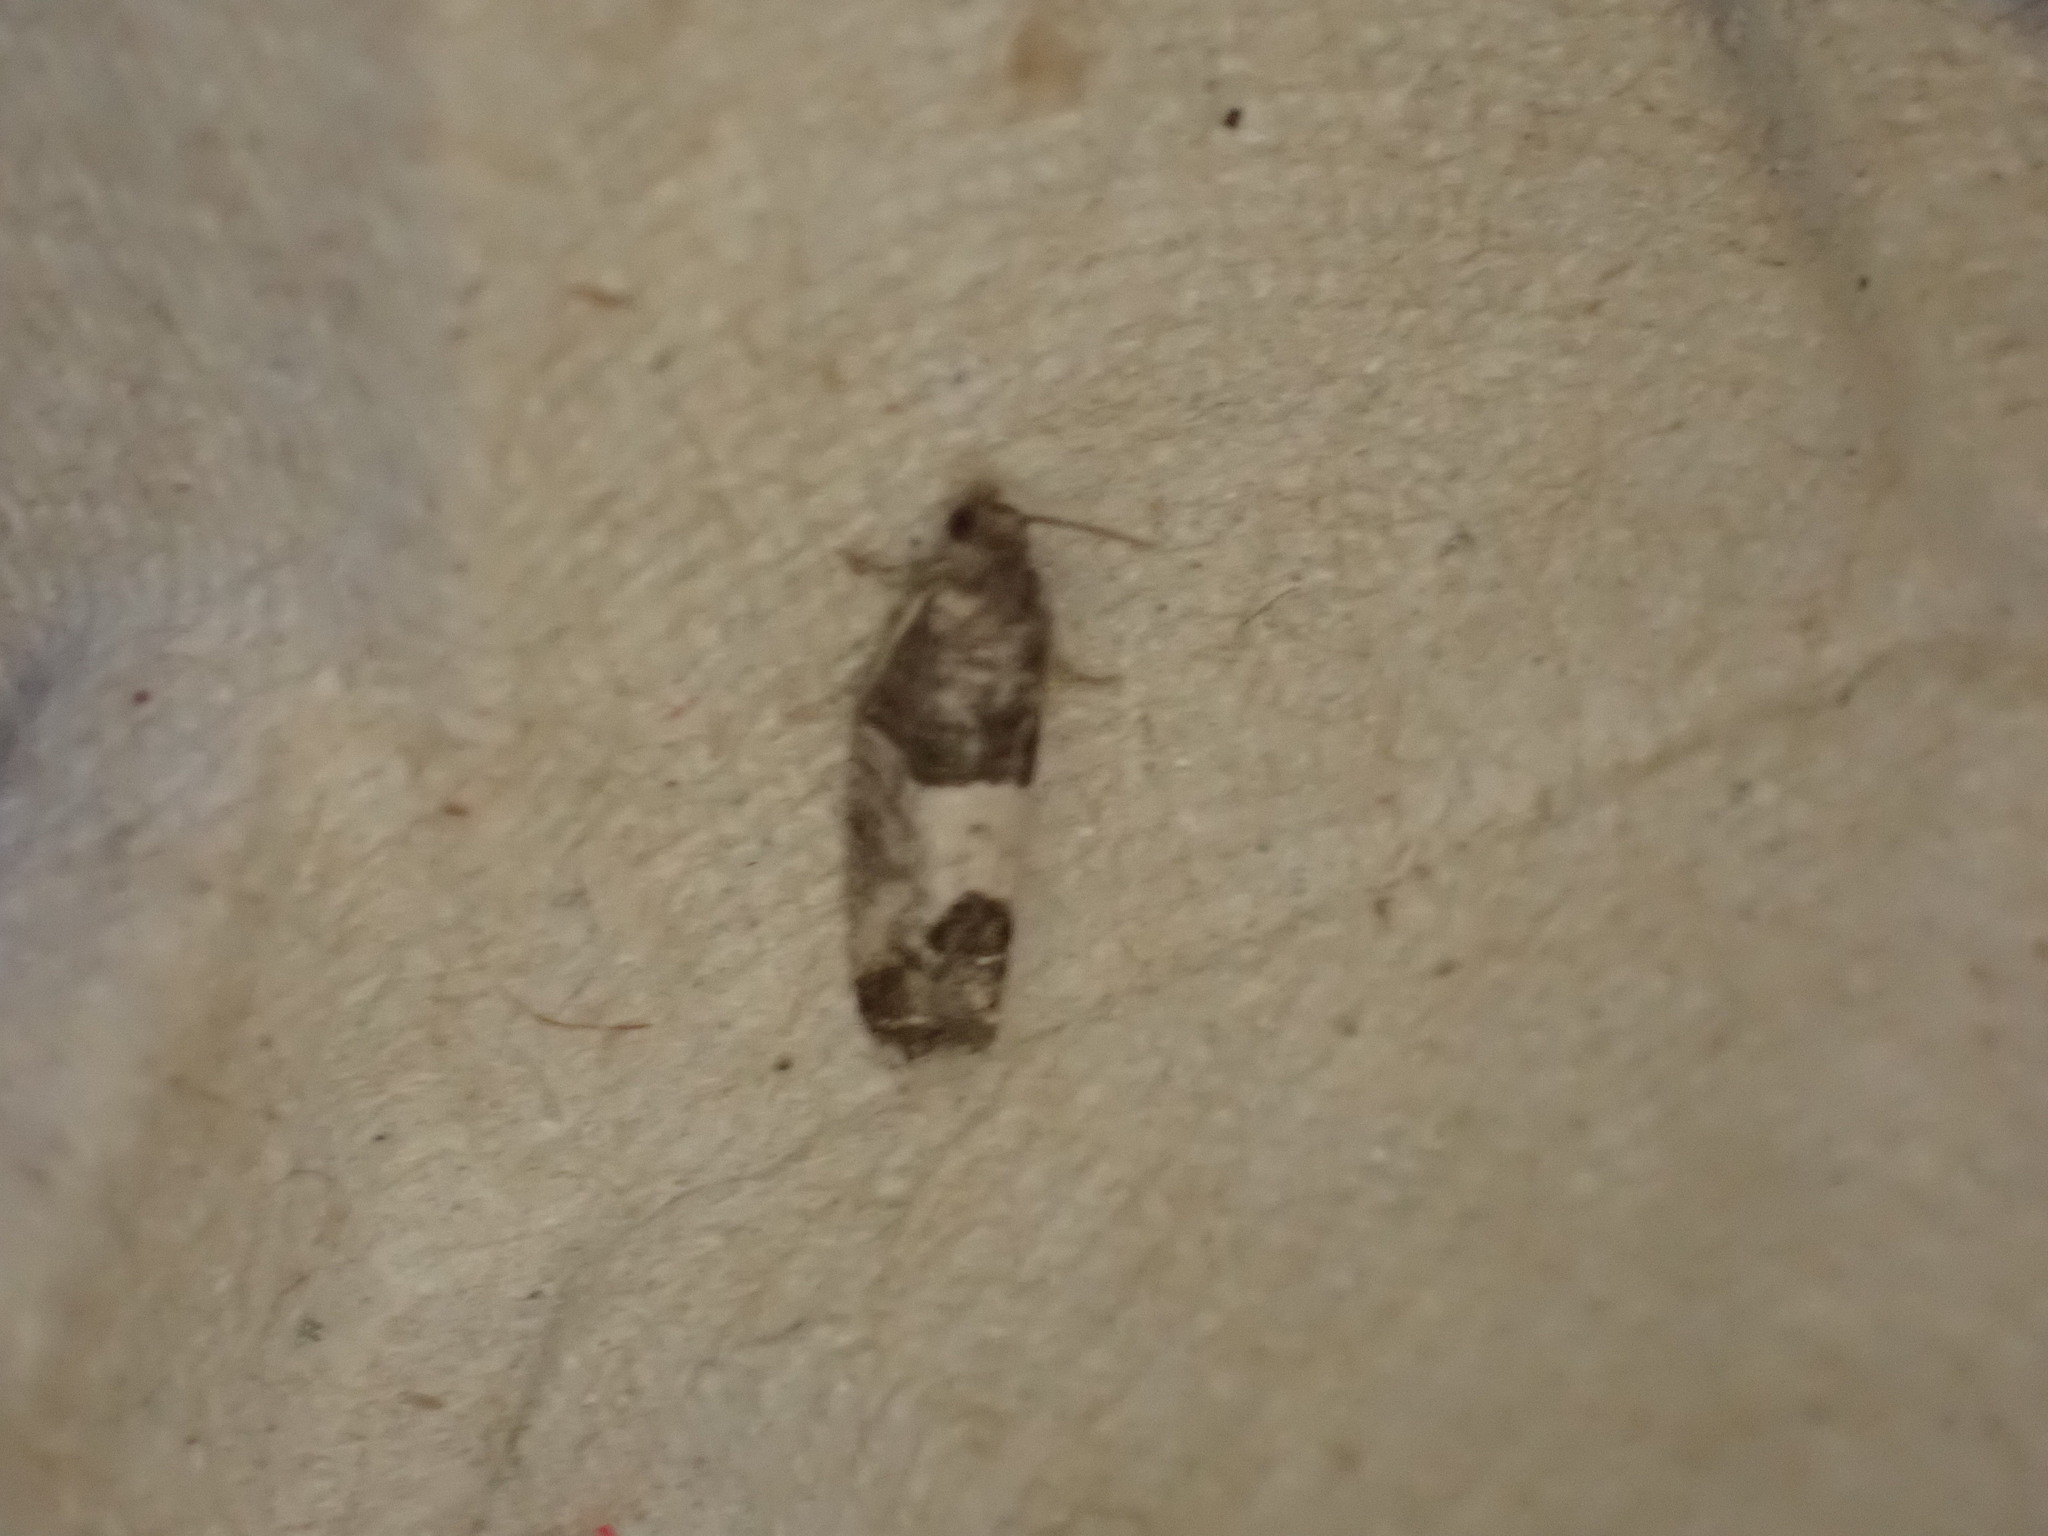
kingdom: Animalia
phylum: Arthropoda
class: Insecta
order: Lepidoptera
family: Tortricidae
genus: Spilonota
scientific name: Spilonota ocellana
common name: Bud moth
